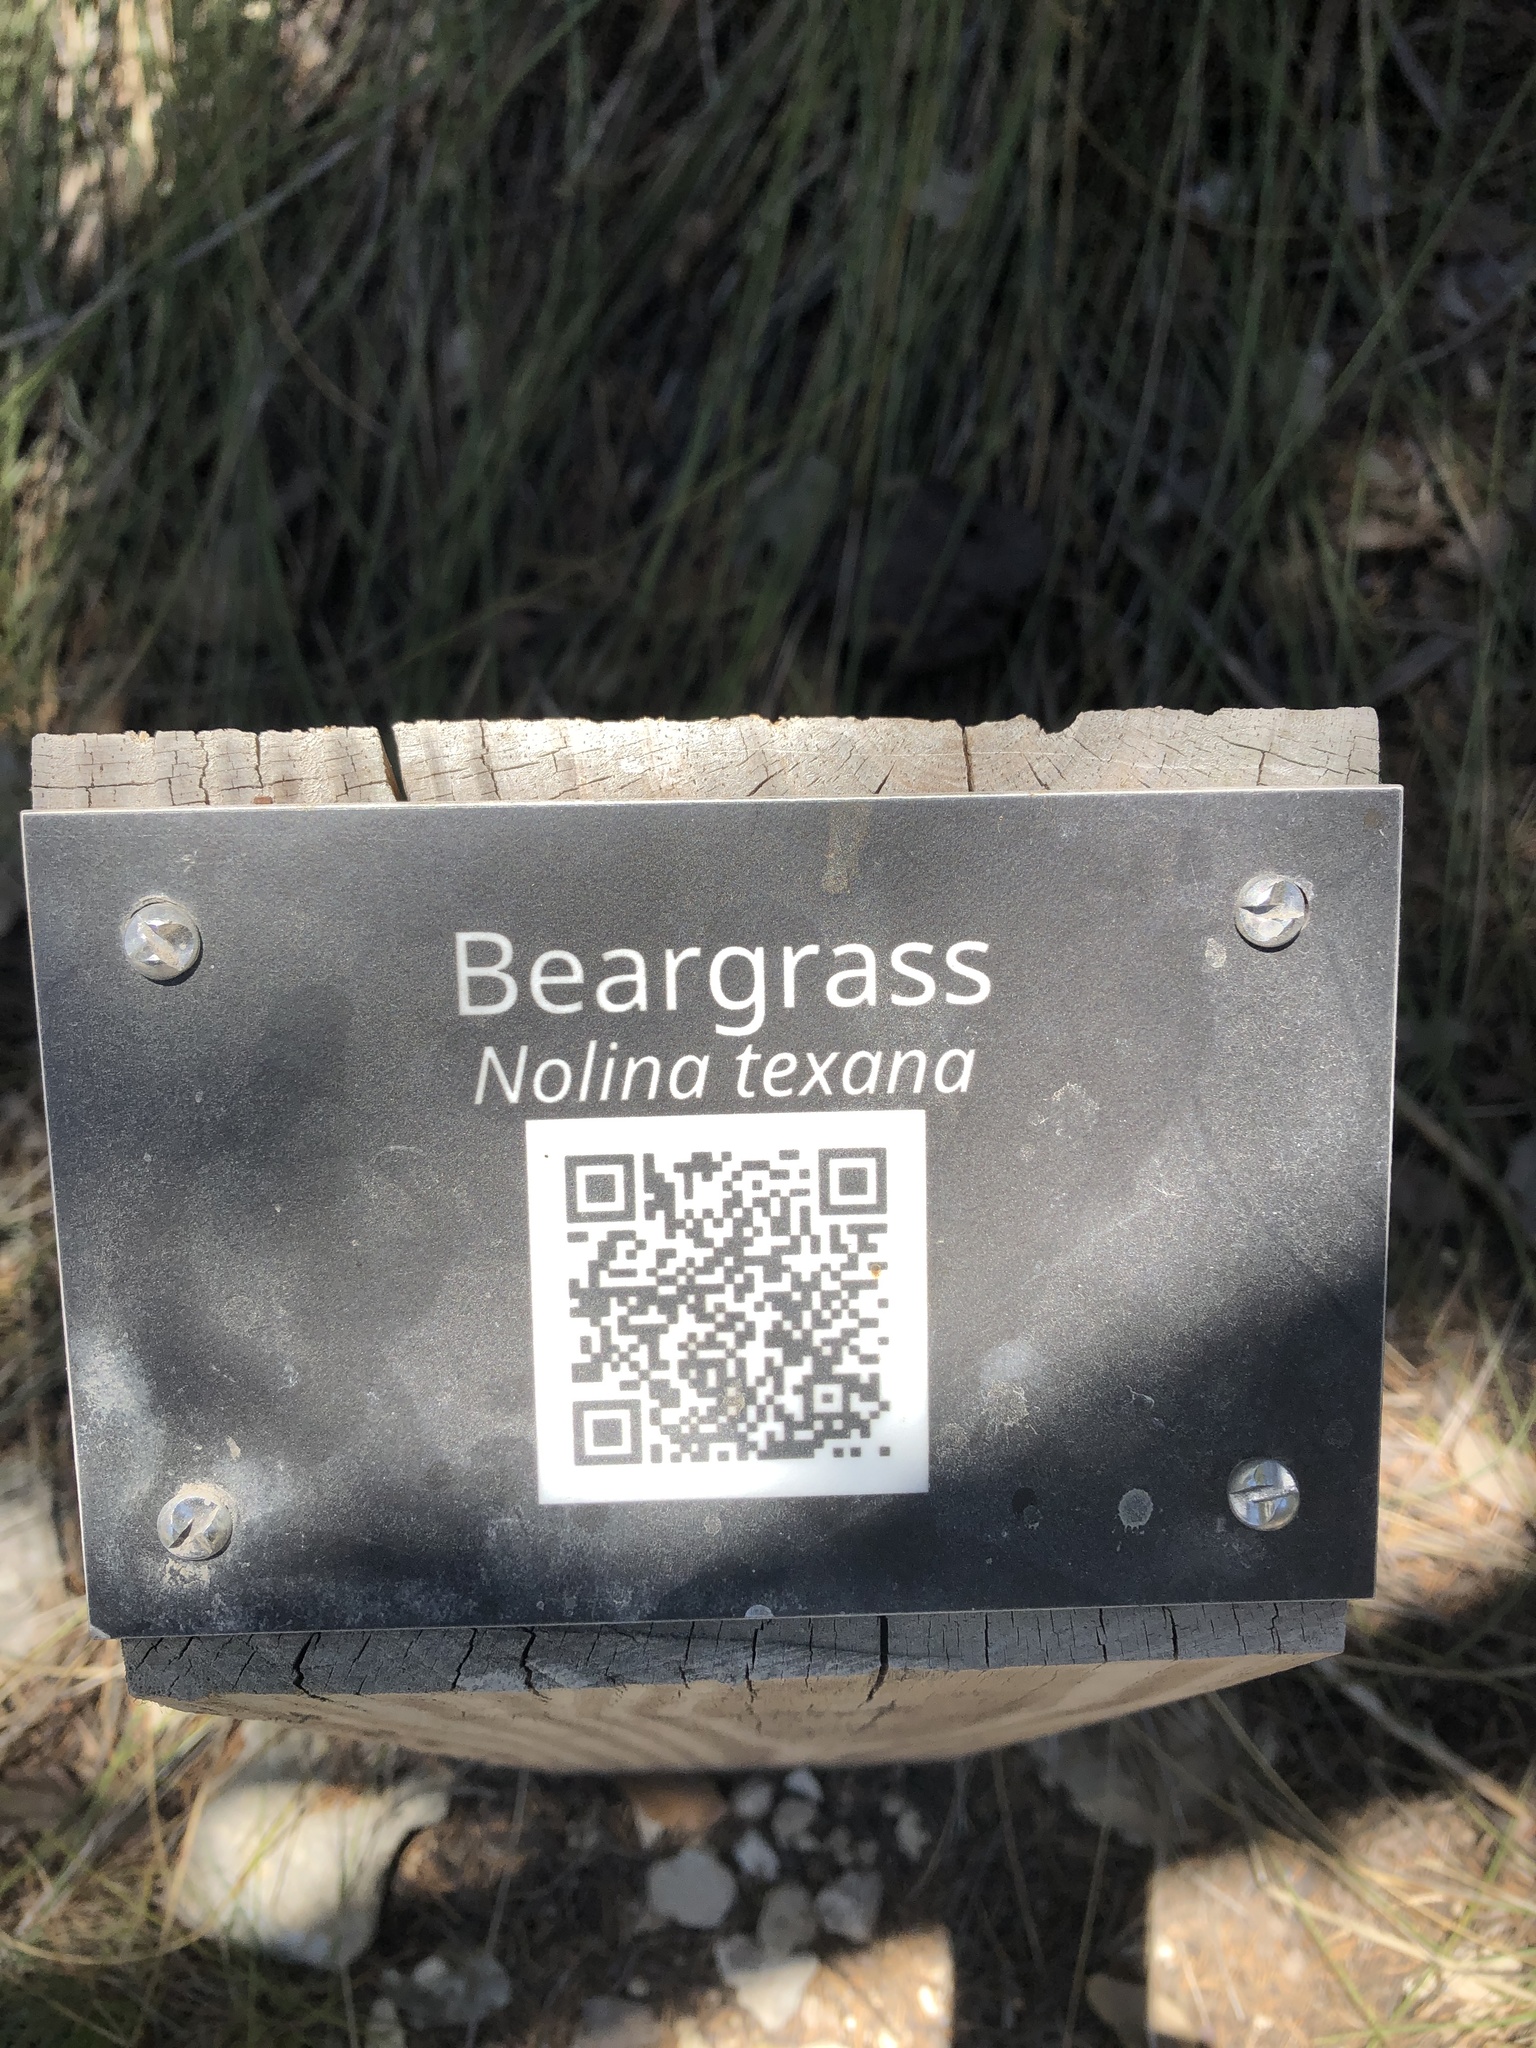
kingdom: Plantae
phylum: Tracheophyta
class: Liliopsida
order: Asparagales
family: Asparagaceae
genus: Nolina
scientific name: Nolina texana
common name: Texas sacahuiste
